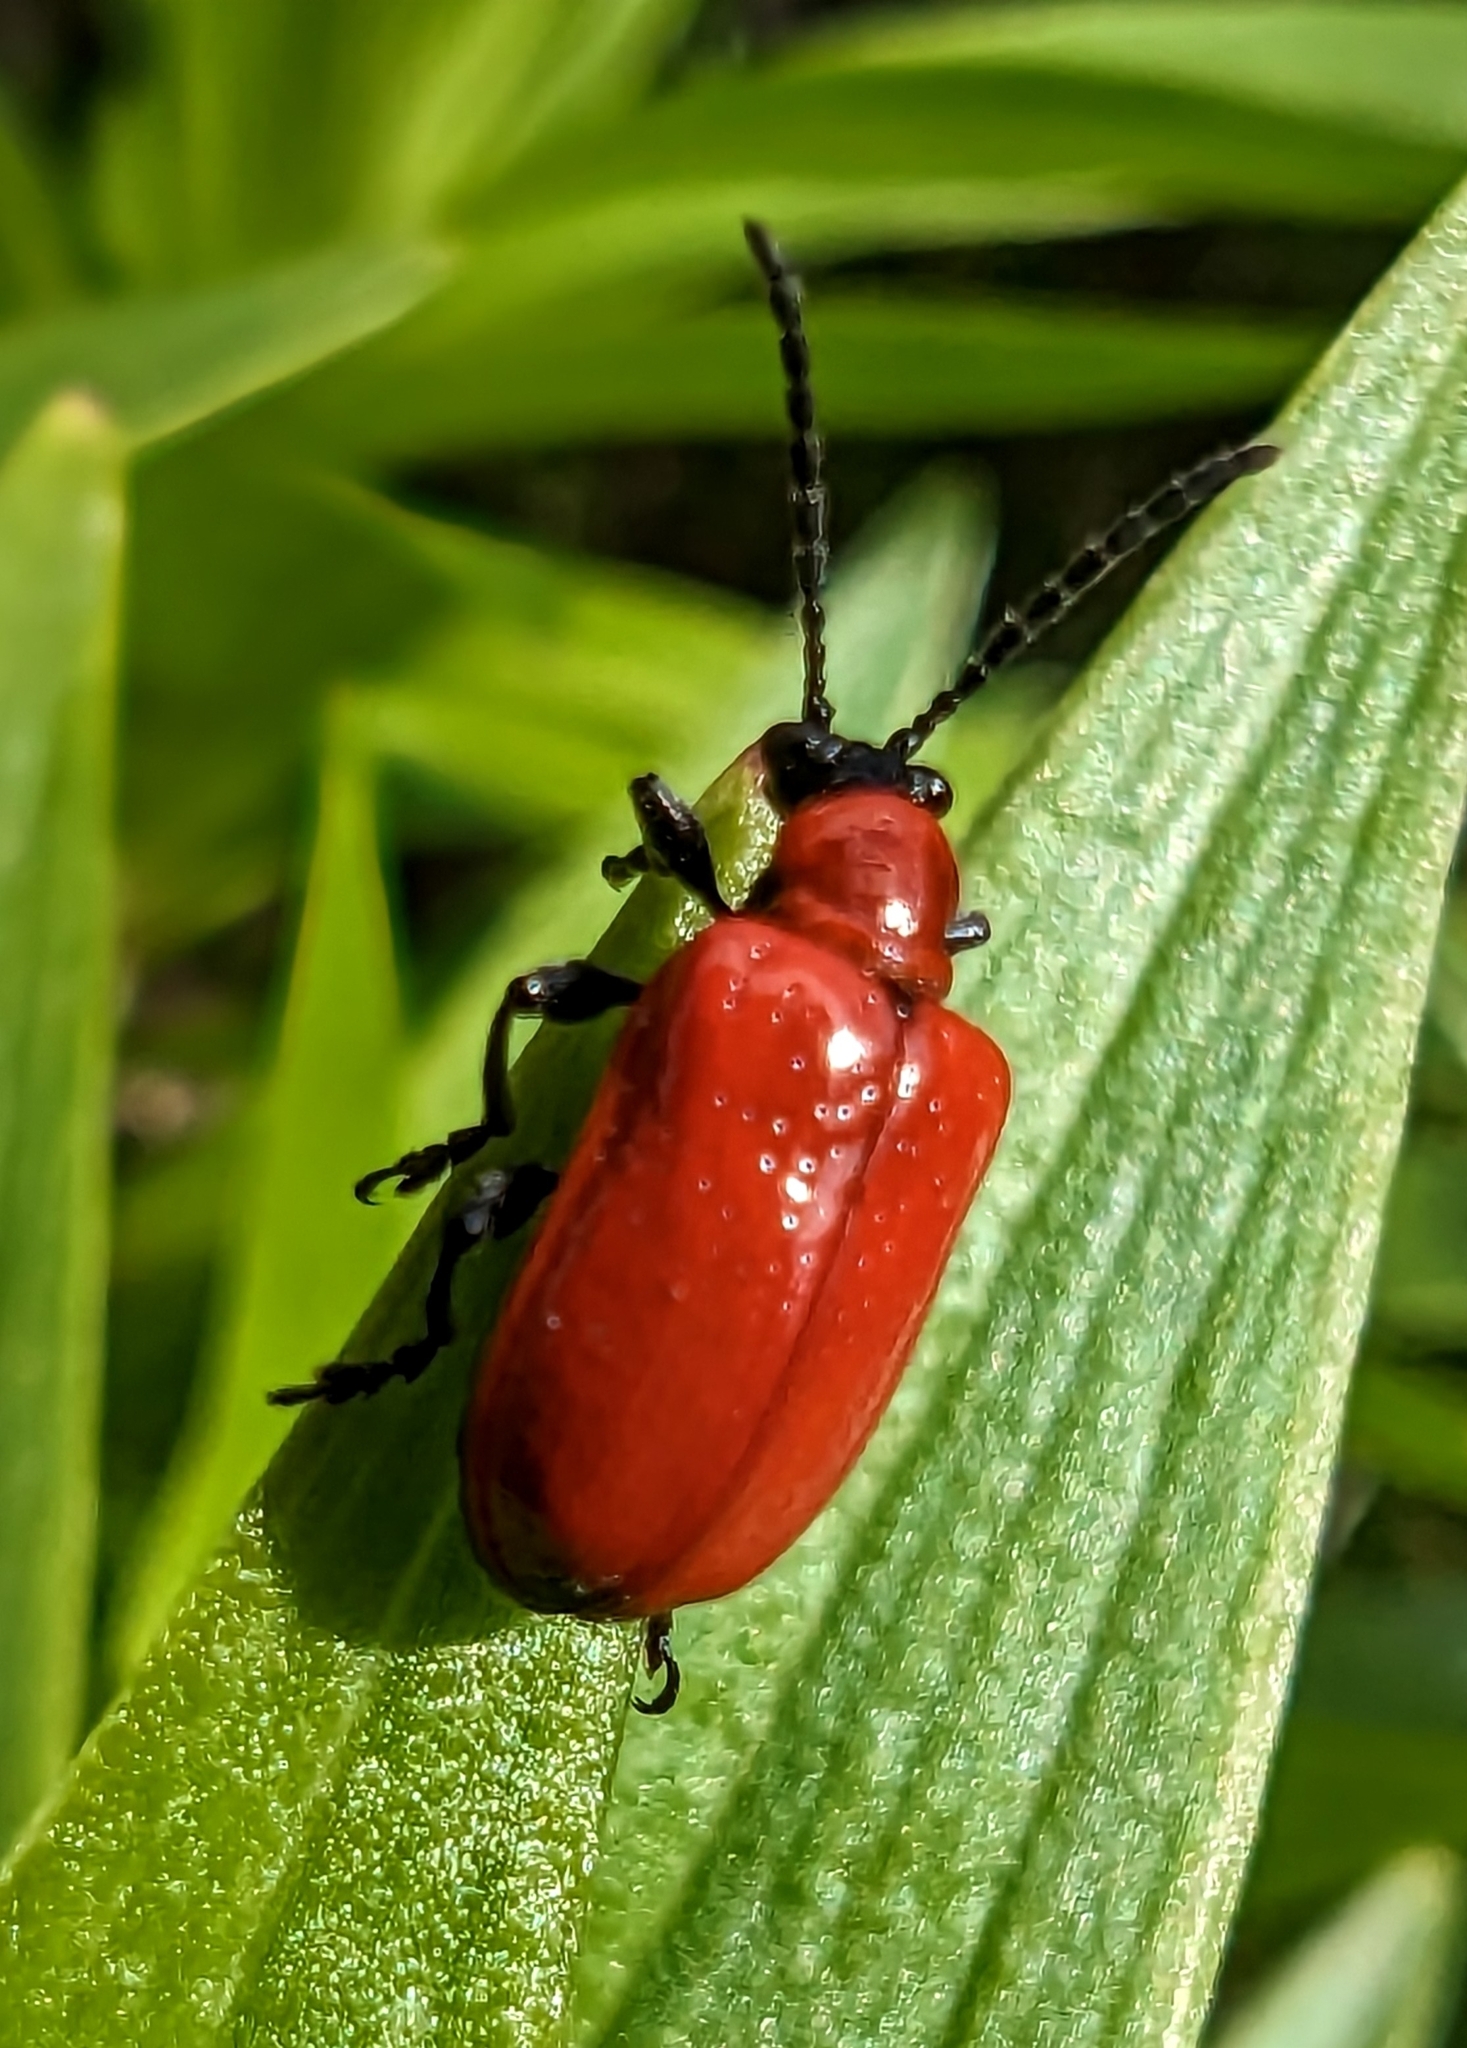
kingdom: Animalia
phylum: Arthropoda
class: Insecta
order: Coleoptera
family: Chrysomelidae
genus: Lilioceris
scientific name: Lilioceris lilii
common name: Lily beetle
